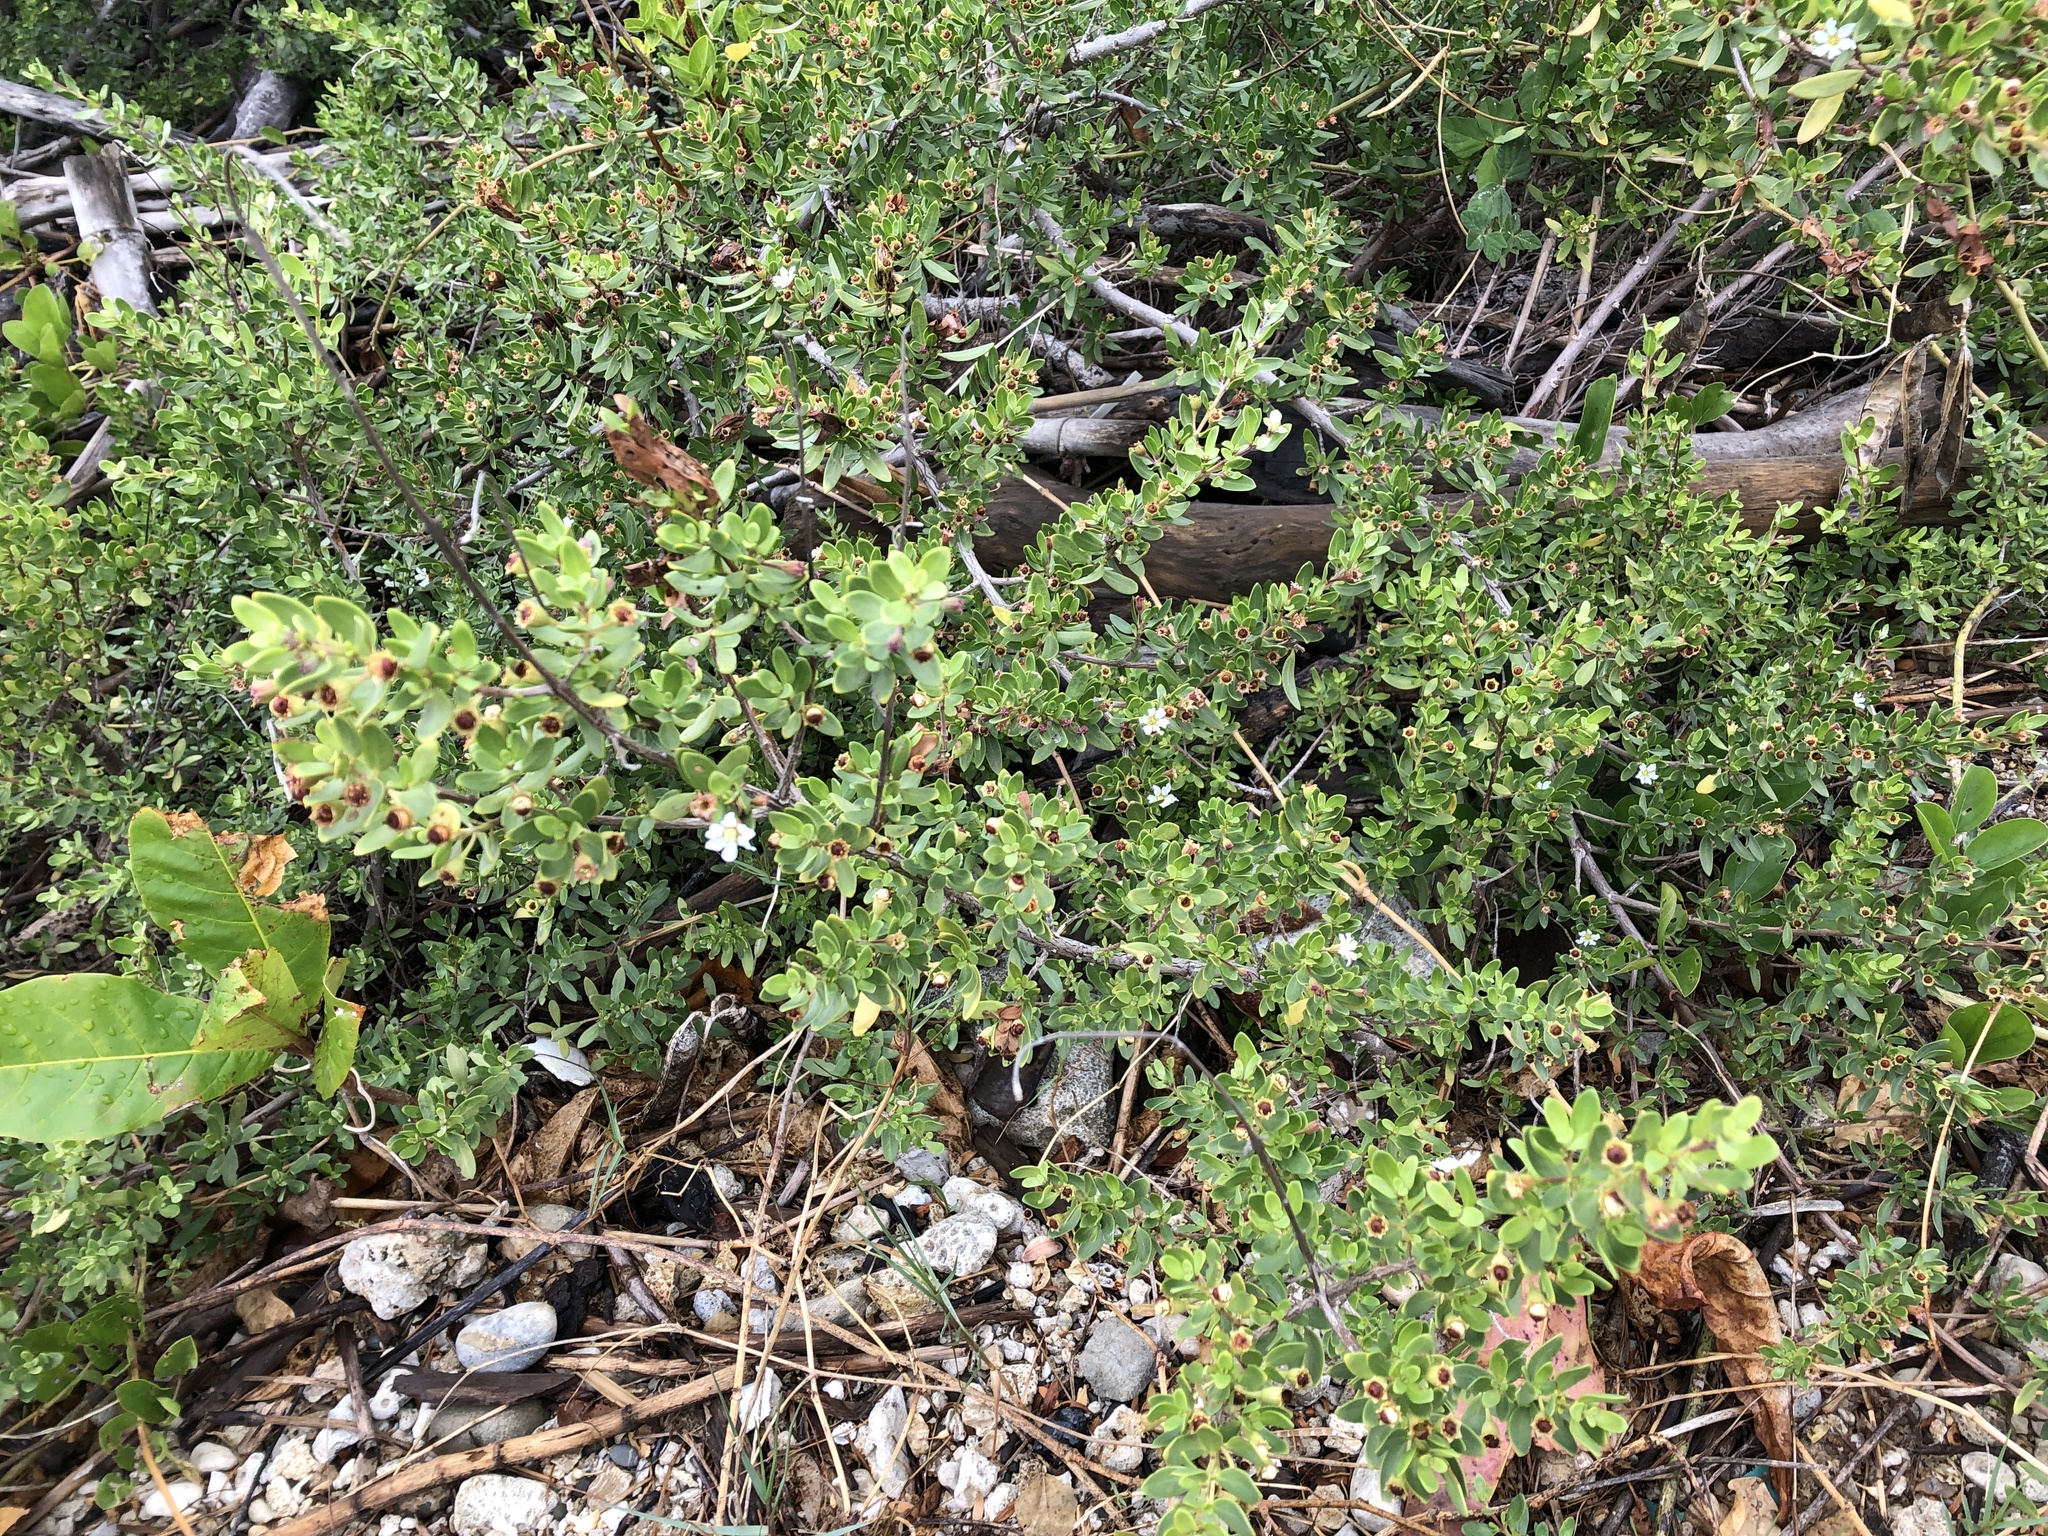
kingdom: Plantae
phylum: Tracheophyta
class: Magnoliopsida
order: Myrtales
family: Lythraceae
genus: Pemphis
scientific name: Pemphis acidula
